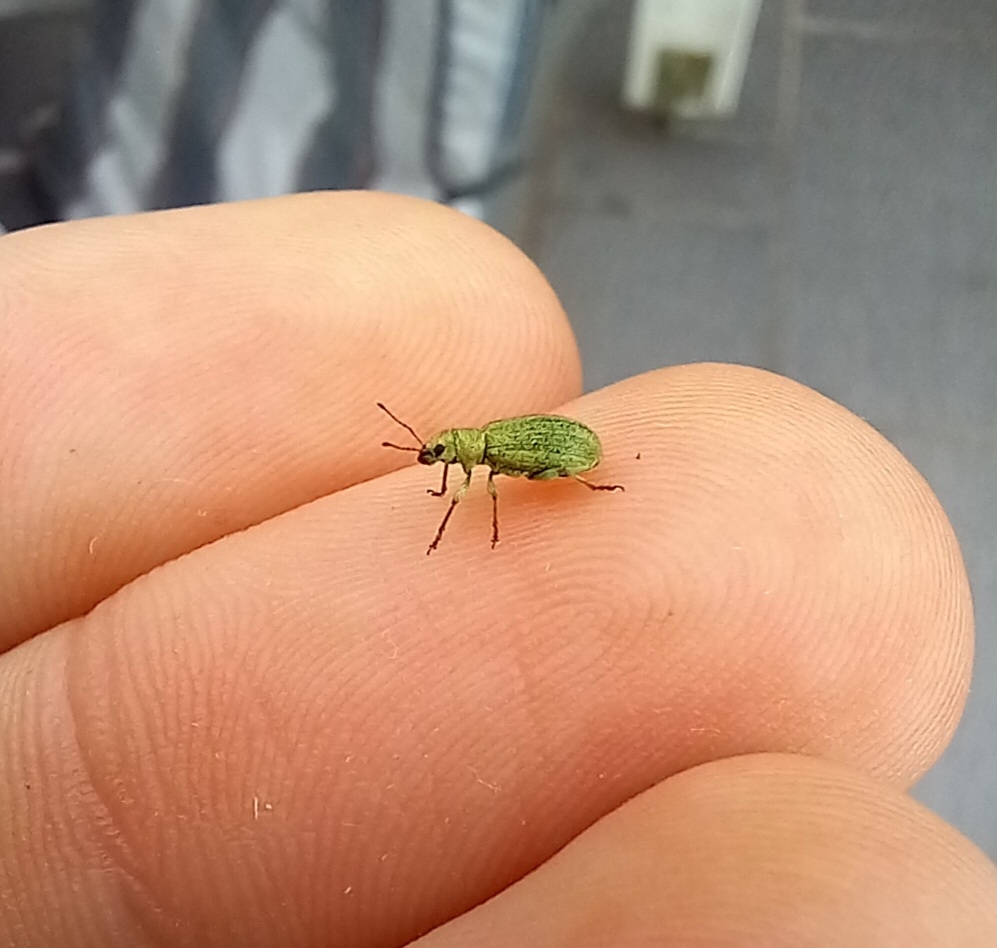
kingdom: Animalia
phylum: Arthropoda
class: Insecta
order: Coleoptera
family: Curculionidae
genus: Pachyrhinus
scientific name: Pachyrhinus lethierryi
